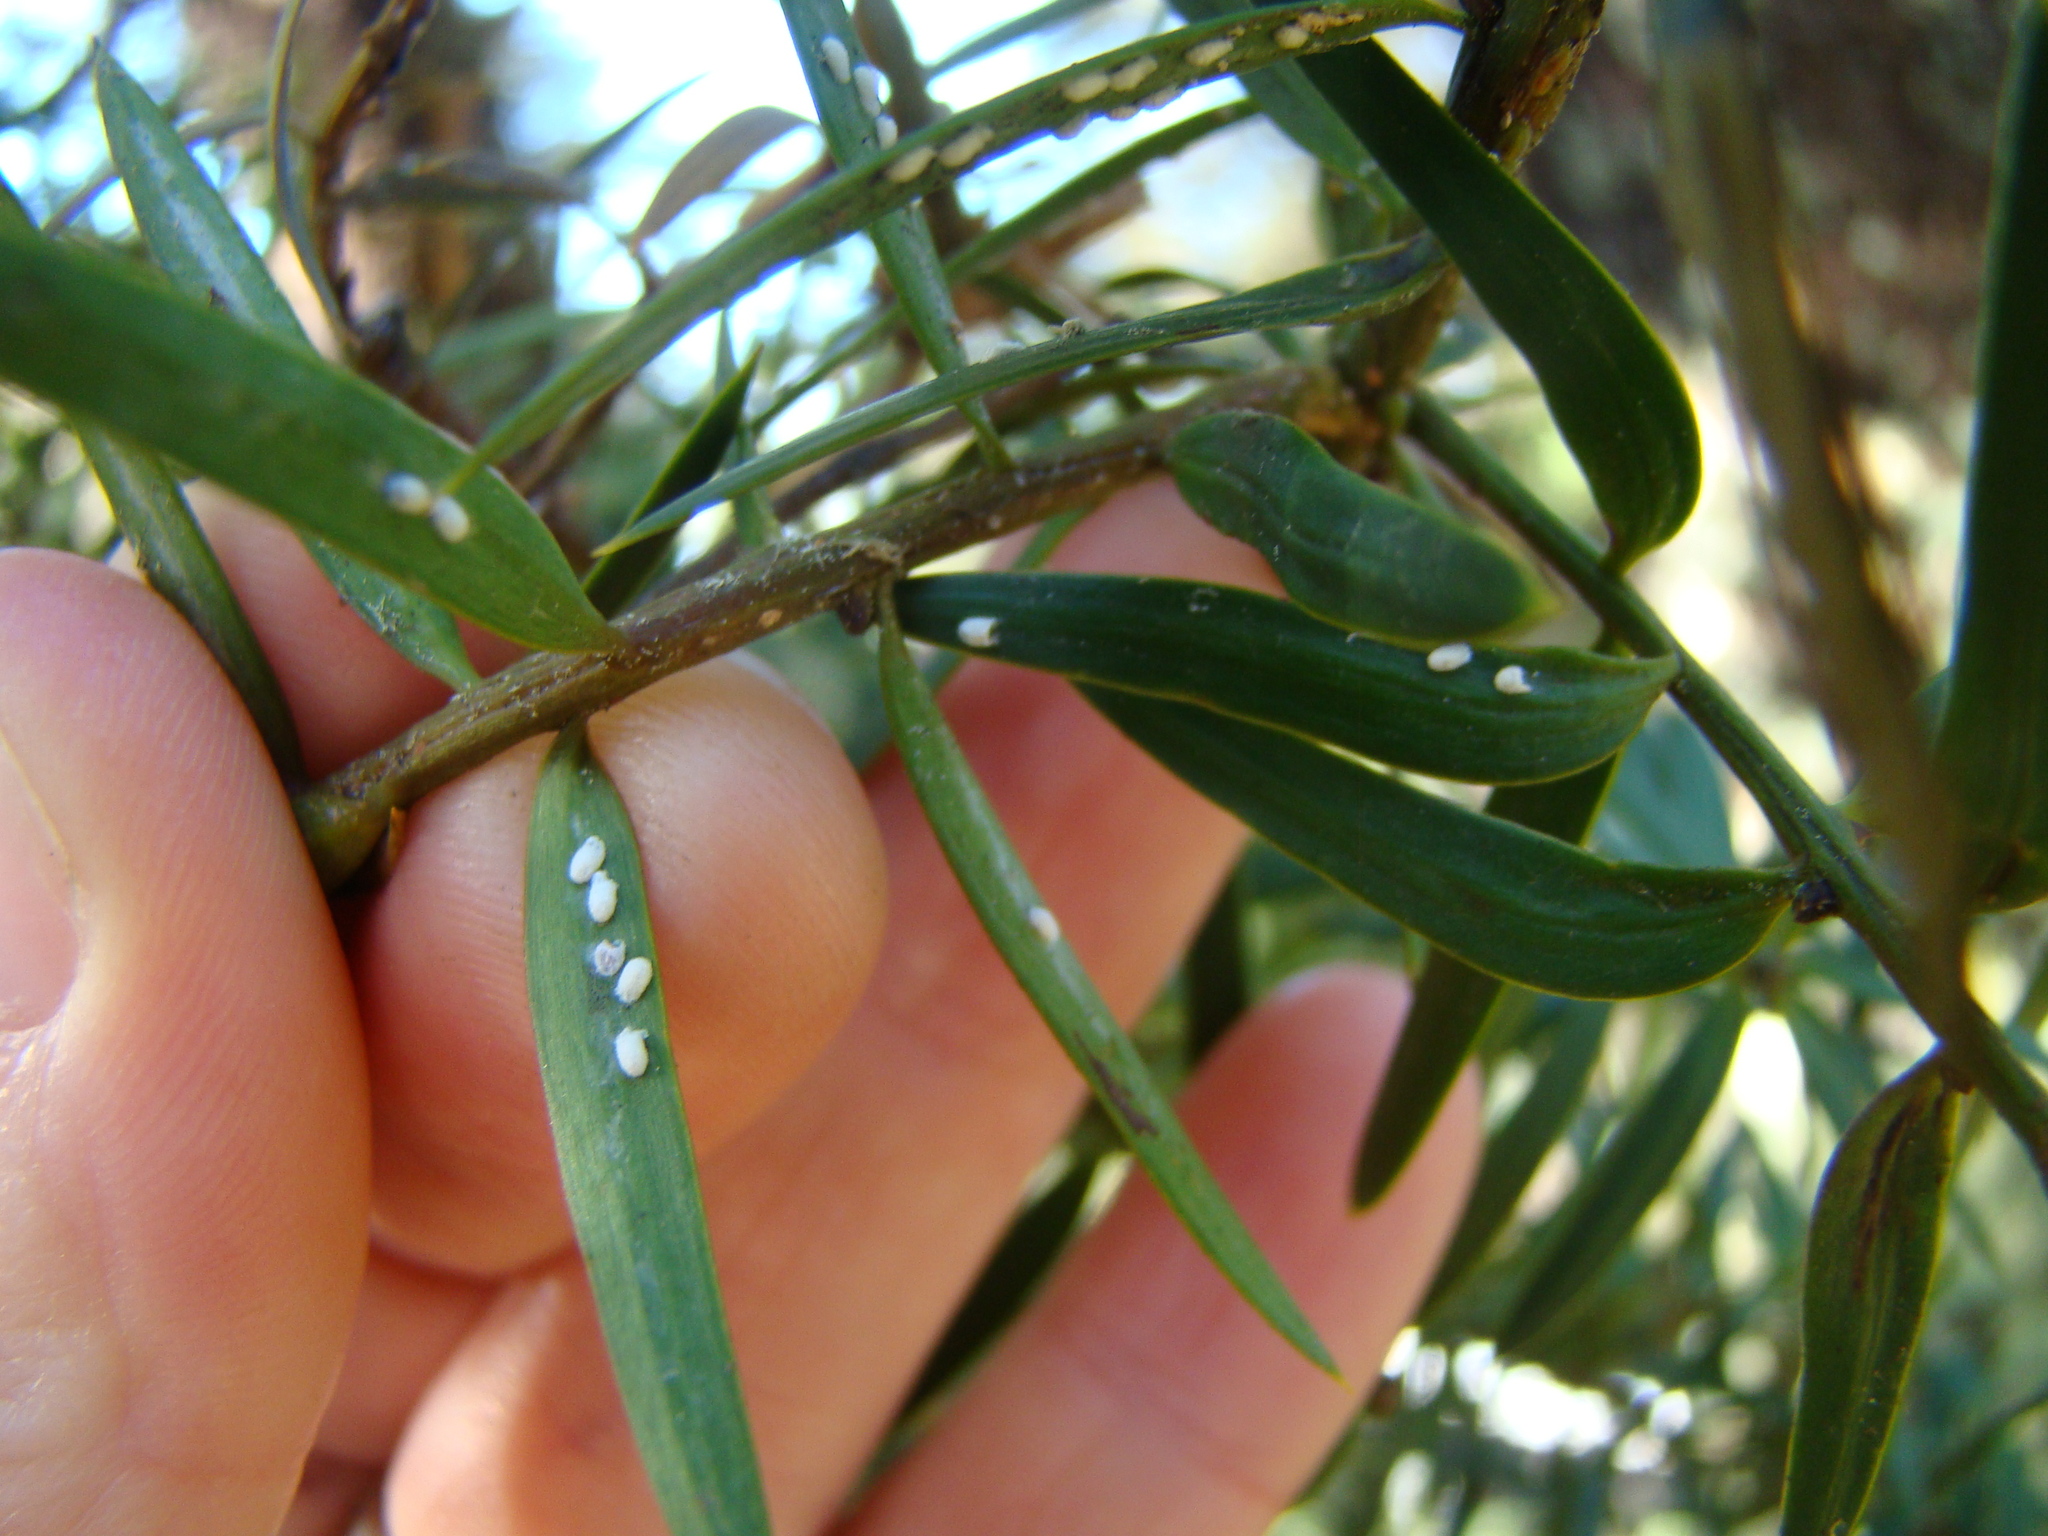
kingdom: Animalia
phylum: Arthropoda
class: Insecta
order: Hemiptera
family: Eriococcidae
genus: Madarococcus
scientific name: Madarococcus totarae
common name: Totara rhizococccus
